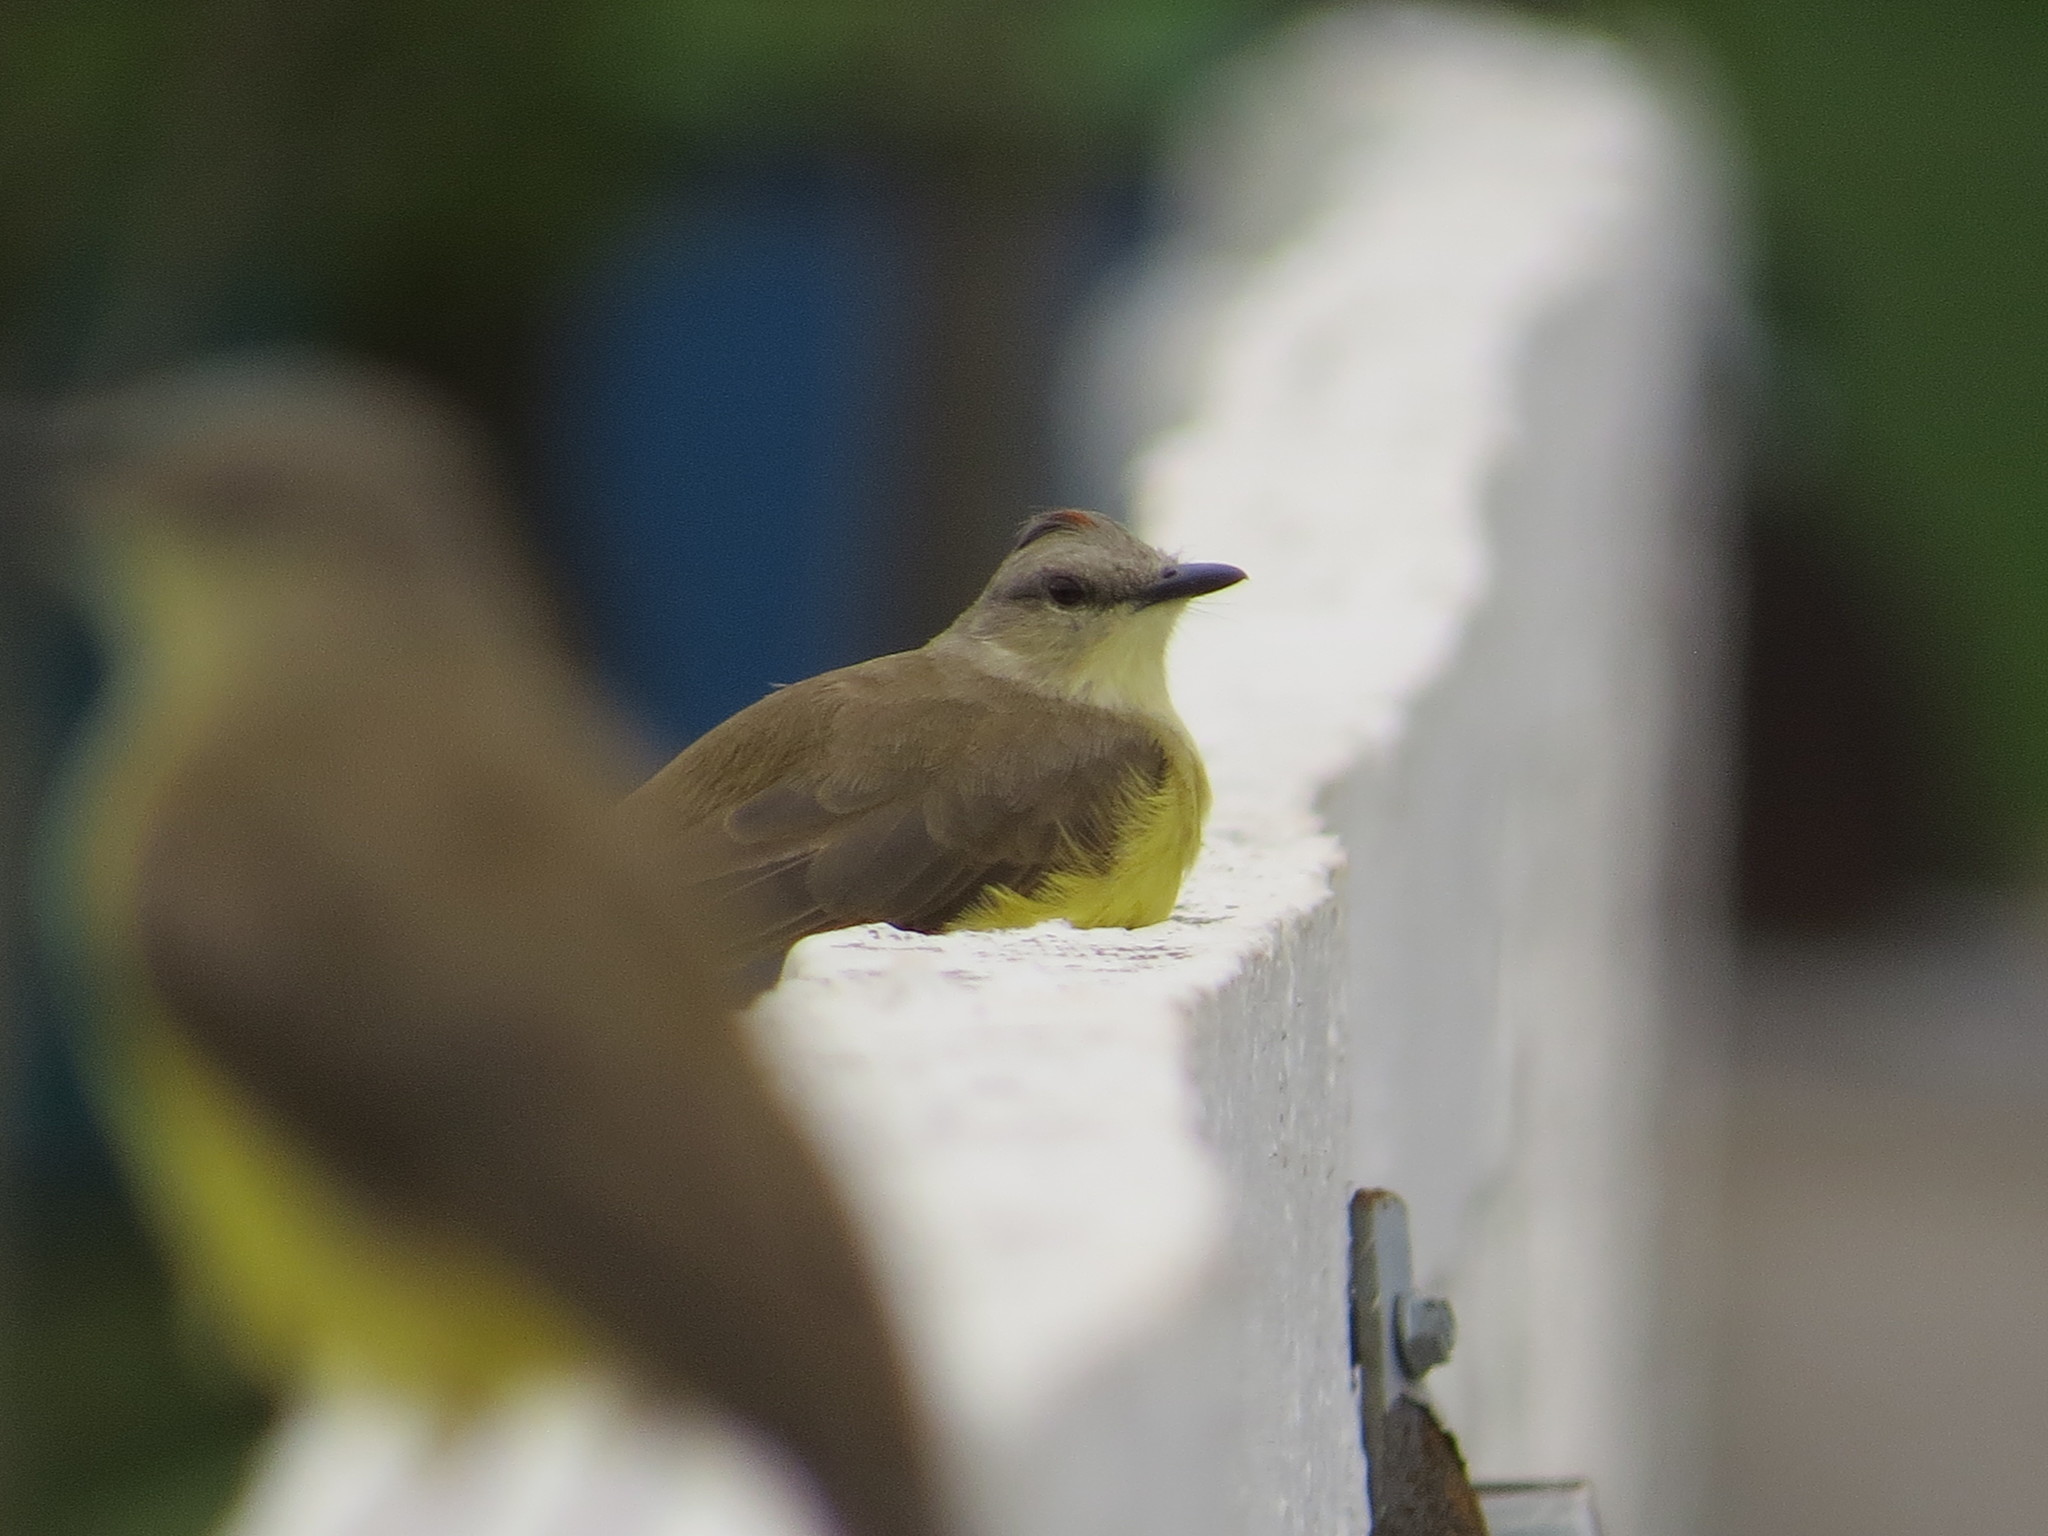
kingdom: Animalia
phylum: Chordata
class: Aves
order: Passeriformes
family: Tyrannidae
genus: Machetornis
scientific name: Machetornis rixosa
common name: Cattle tyrant
